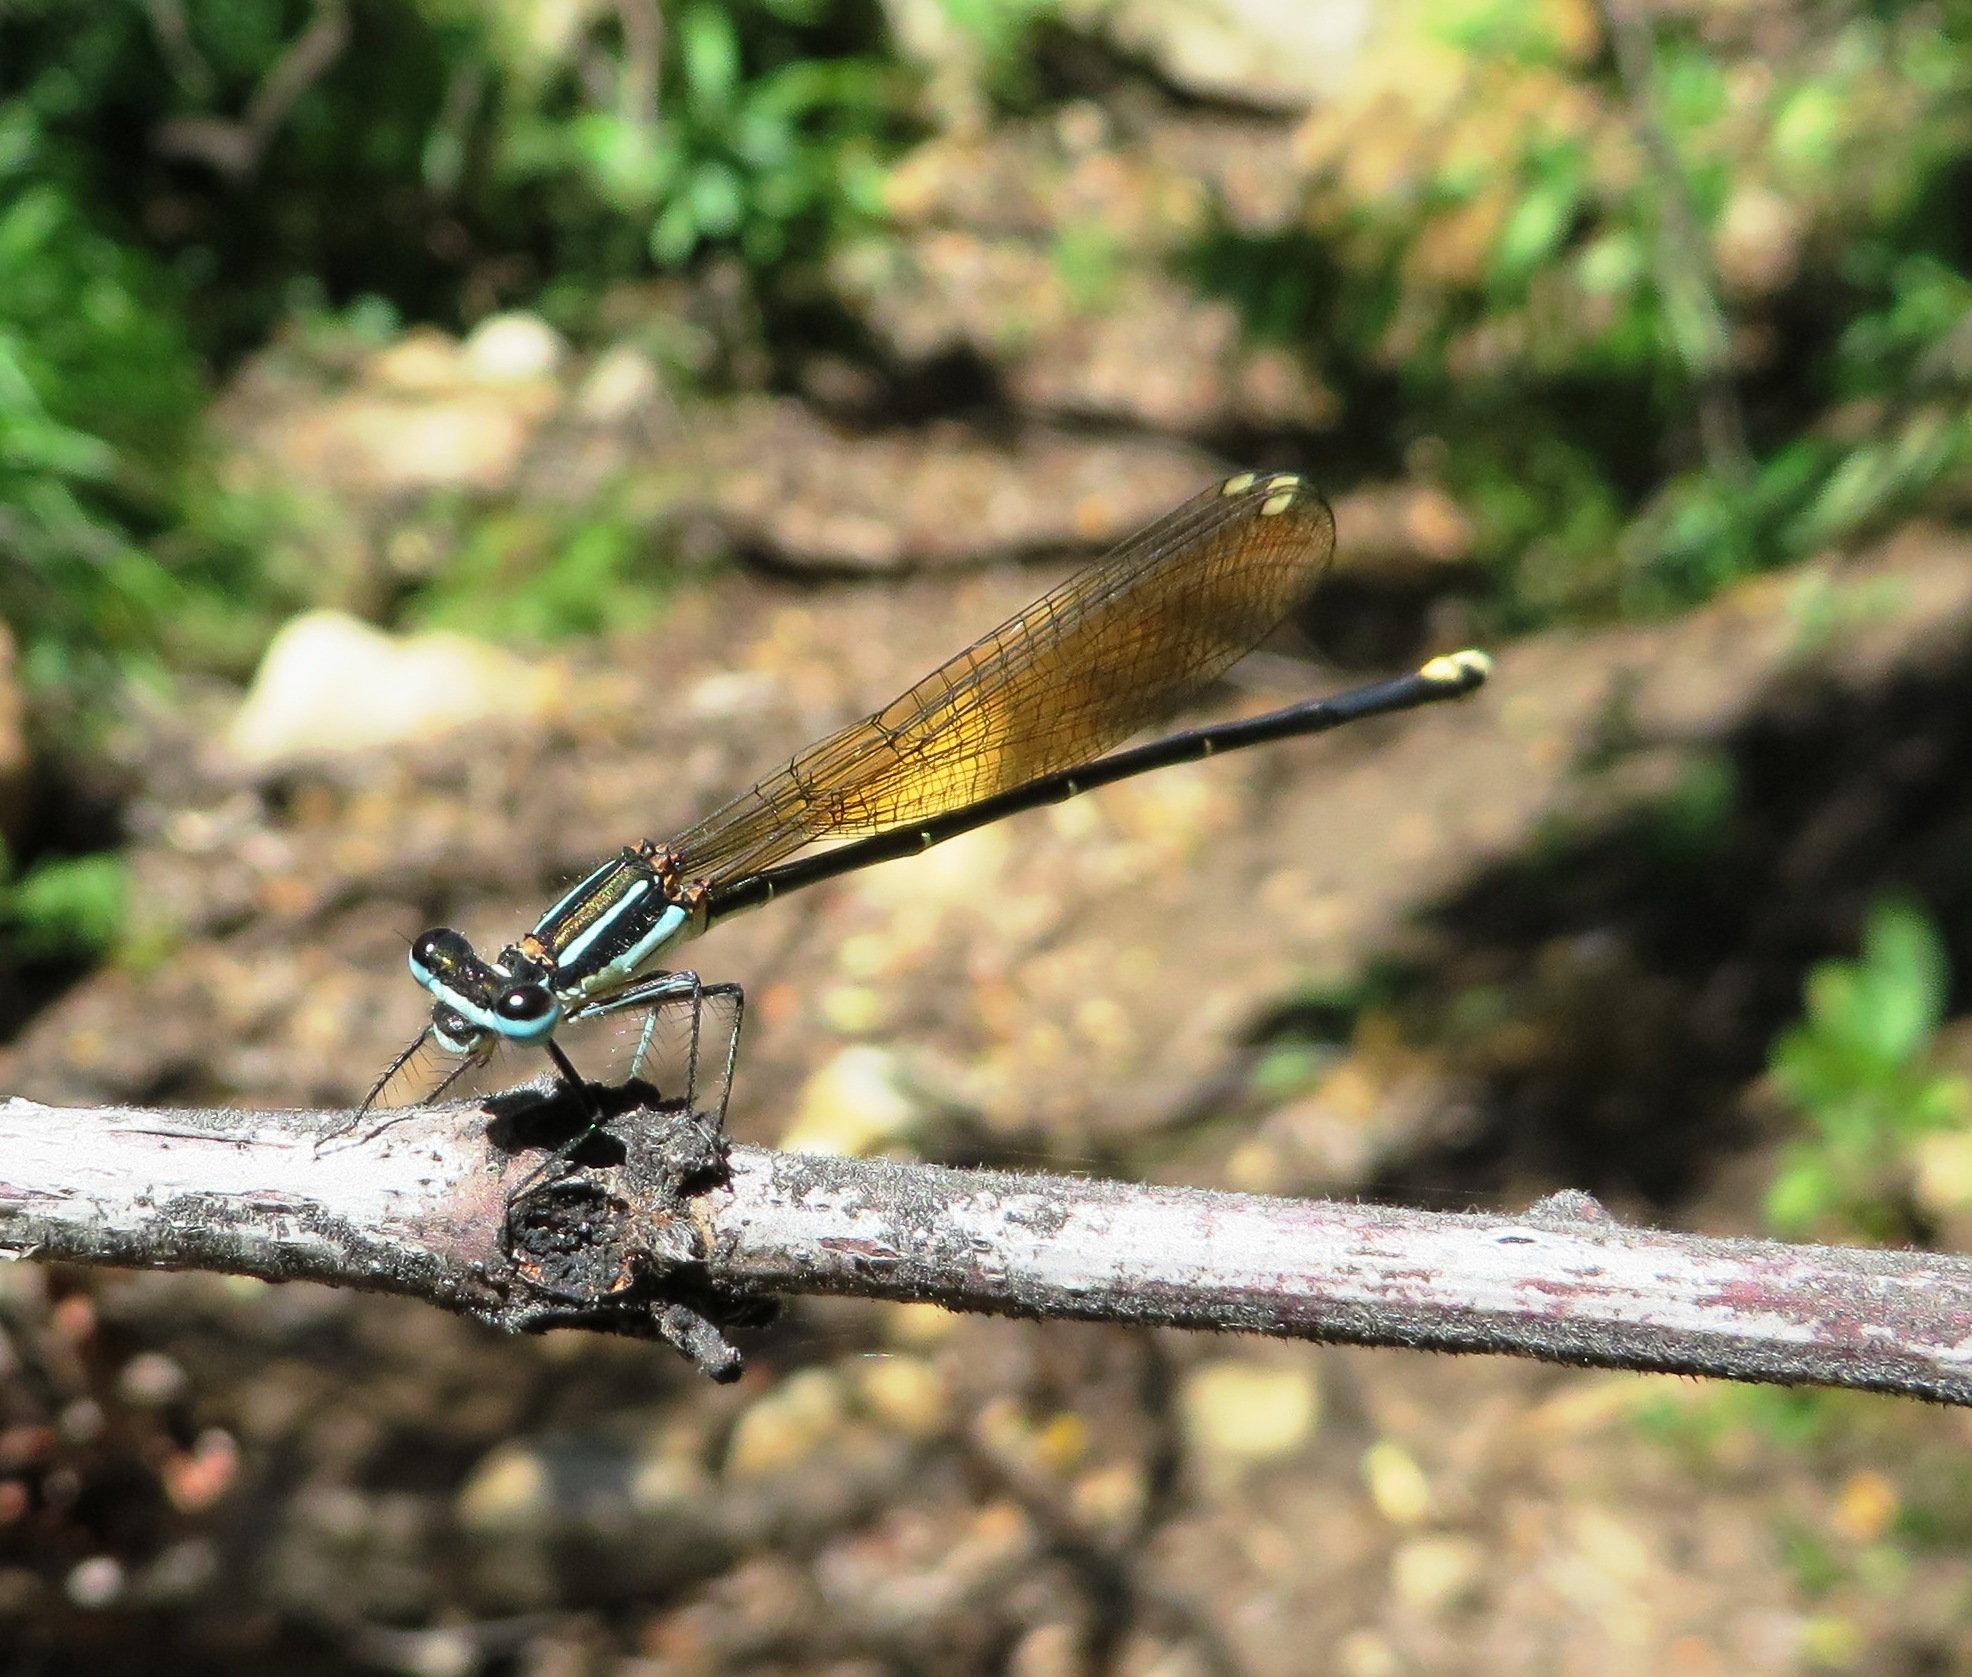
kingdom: Animalia
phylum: Arthropoda
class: Insecta
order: Odonata
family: Platycnemididae
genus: Allocnemis
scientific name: Allocnemis leucosticta
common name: Goldtail
